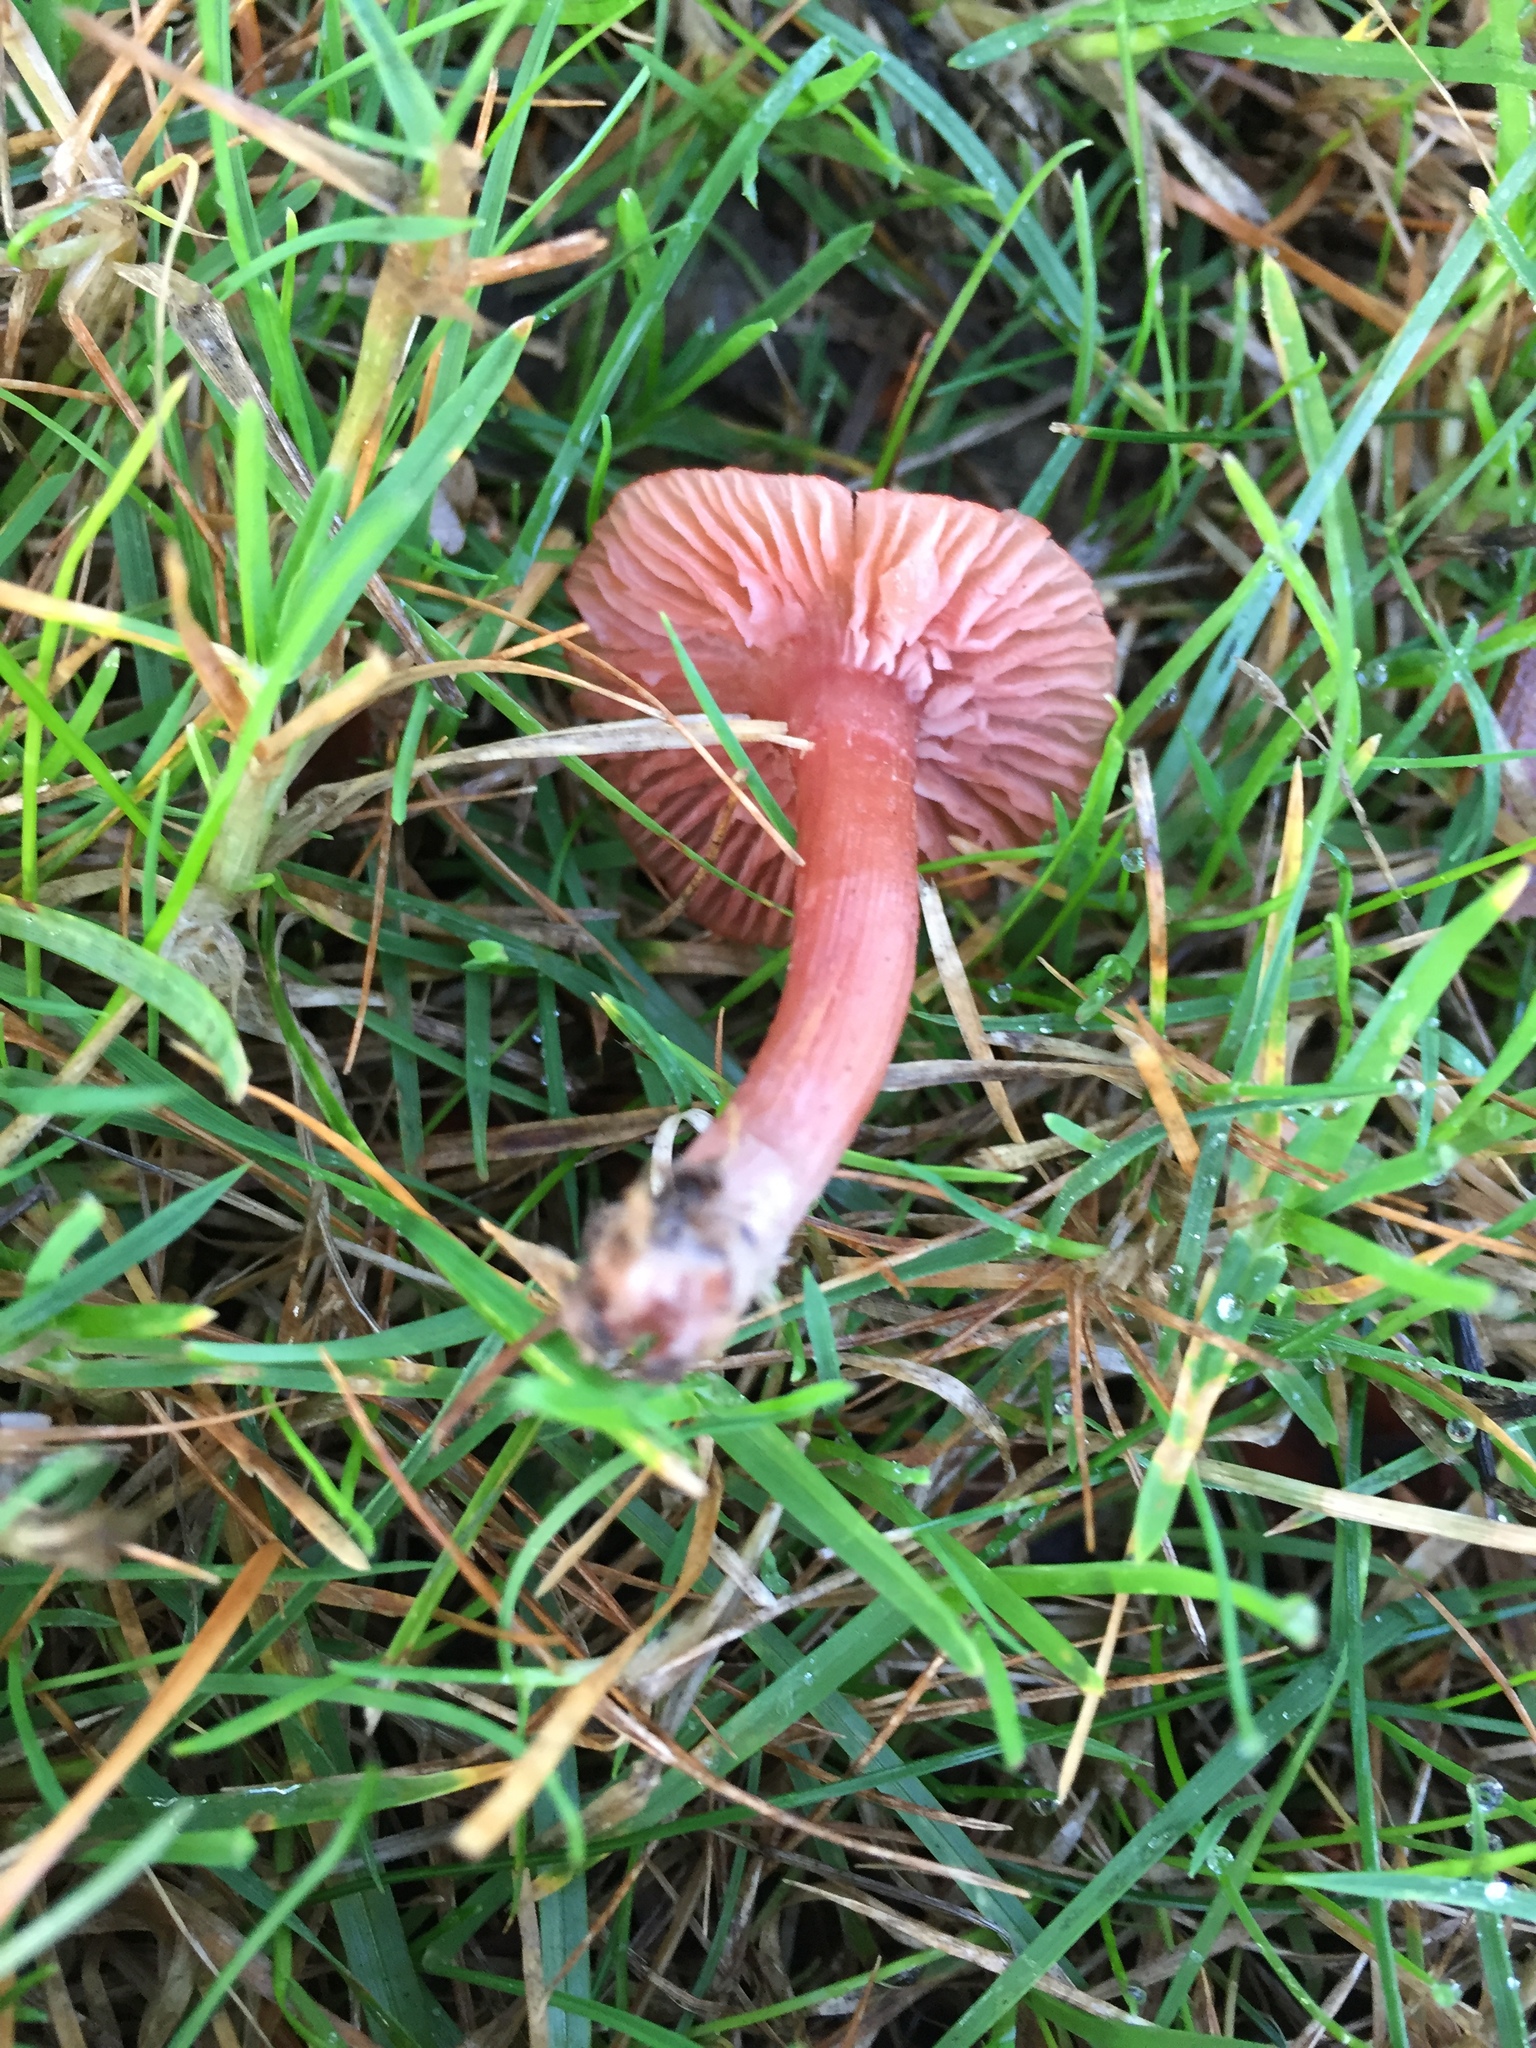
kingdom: Fungi
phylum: Basidiomycota
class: Agaricomycetes
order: Agaricales
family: Tubariaceae
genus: Tubaria
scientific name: Tubaria furfuracea
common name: Scurfy twiglet
